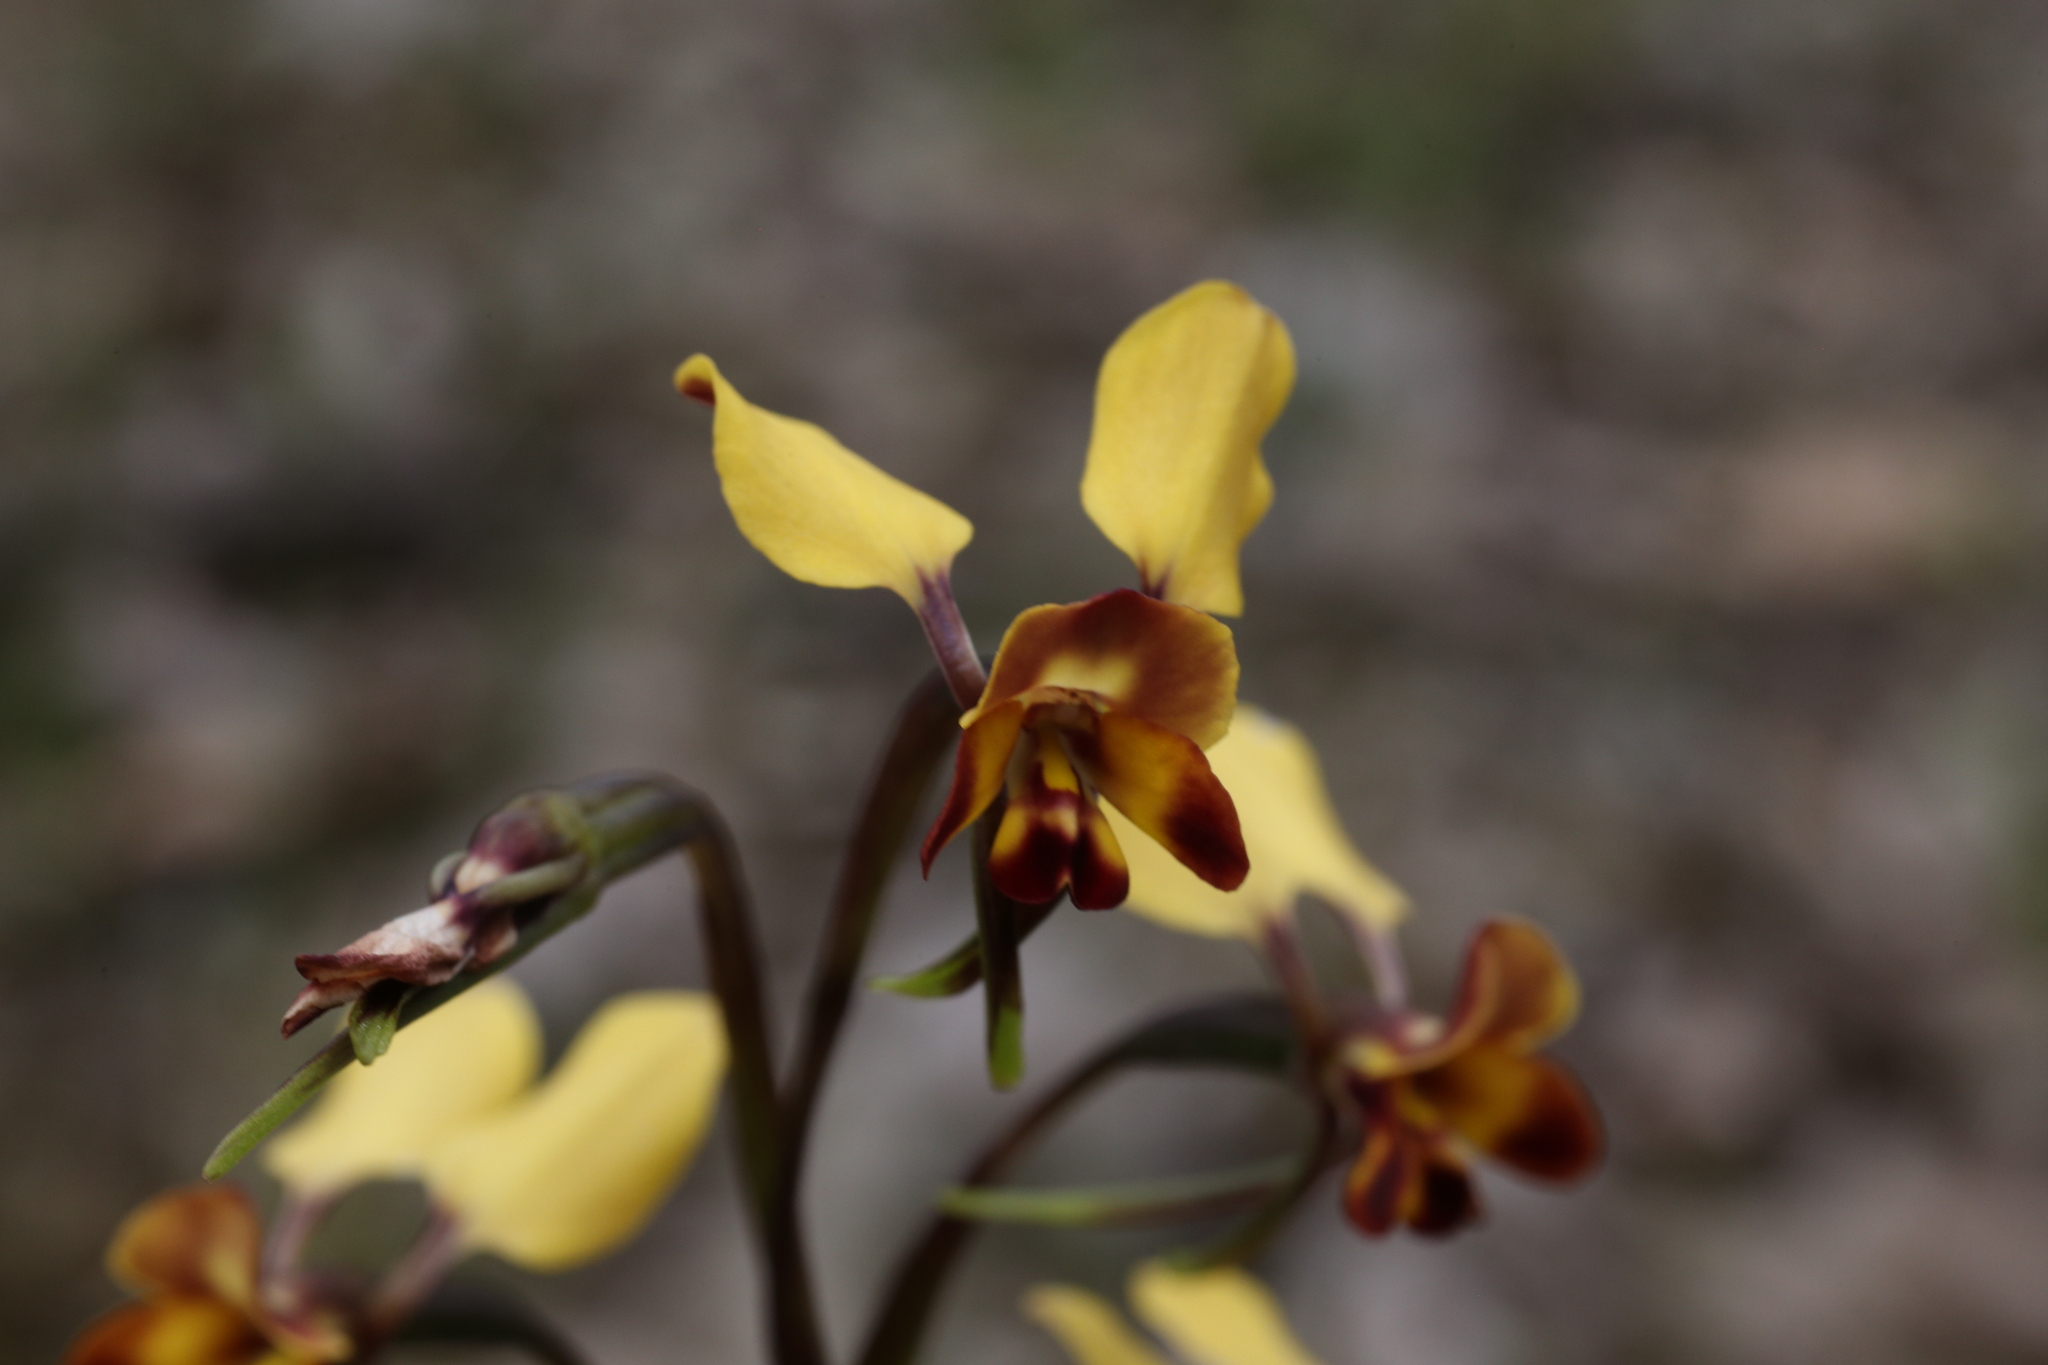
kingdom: Plantae
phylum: Tracheophyta
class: Liliopsida
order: Asparagales
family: Orchidaceae
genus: Diuris
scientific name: Diuris corymbosa
